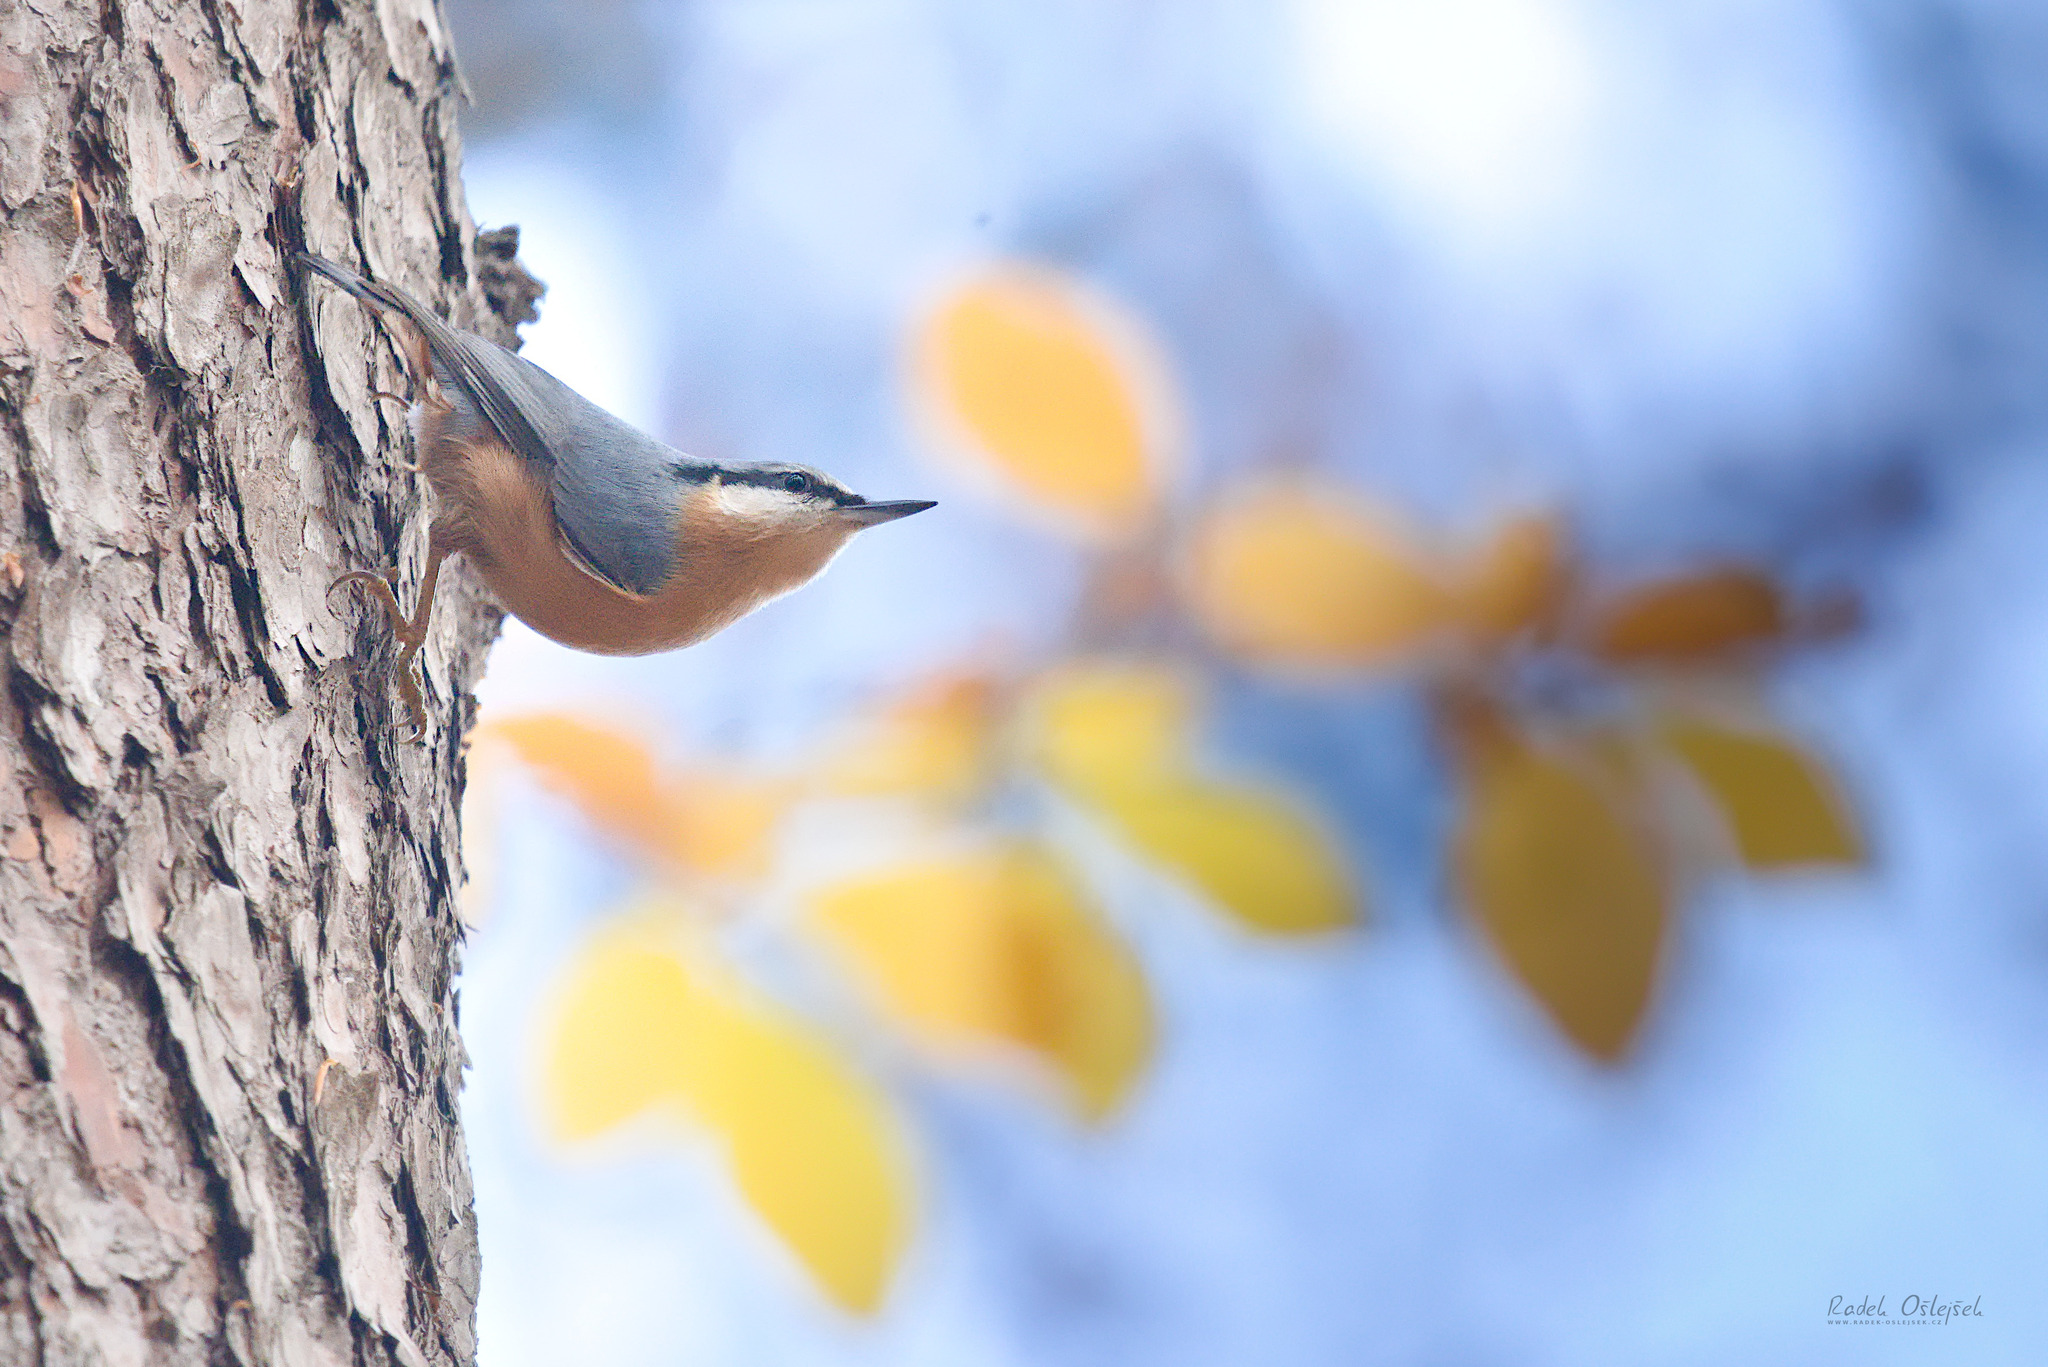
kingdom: Animalia
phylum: Chordata
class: Aves
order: Passeriformes
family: Sittidae
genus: Sitta
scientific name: Sitta europaea
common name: Eurasian nuthatch
